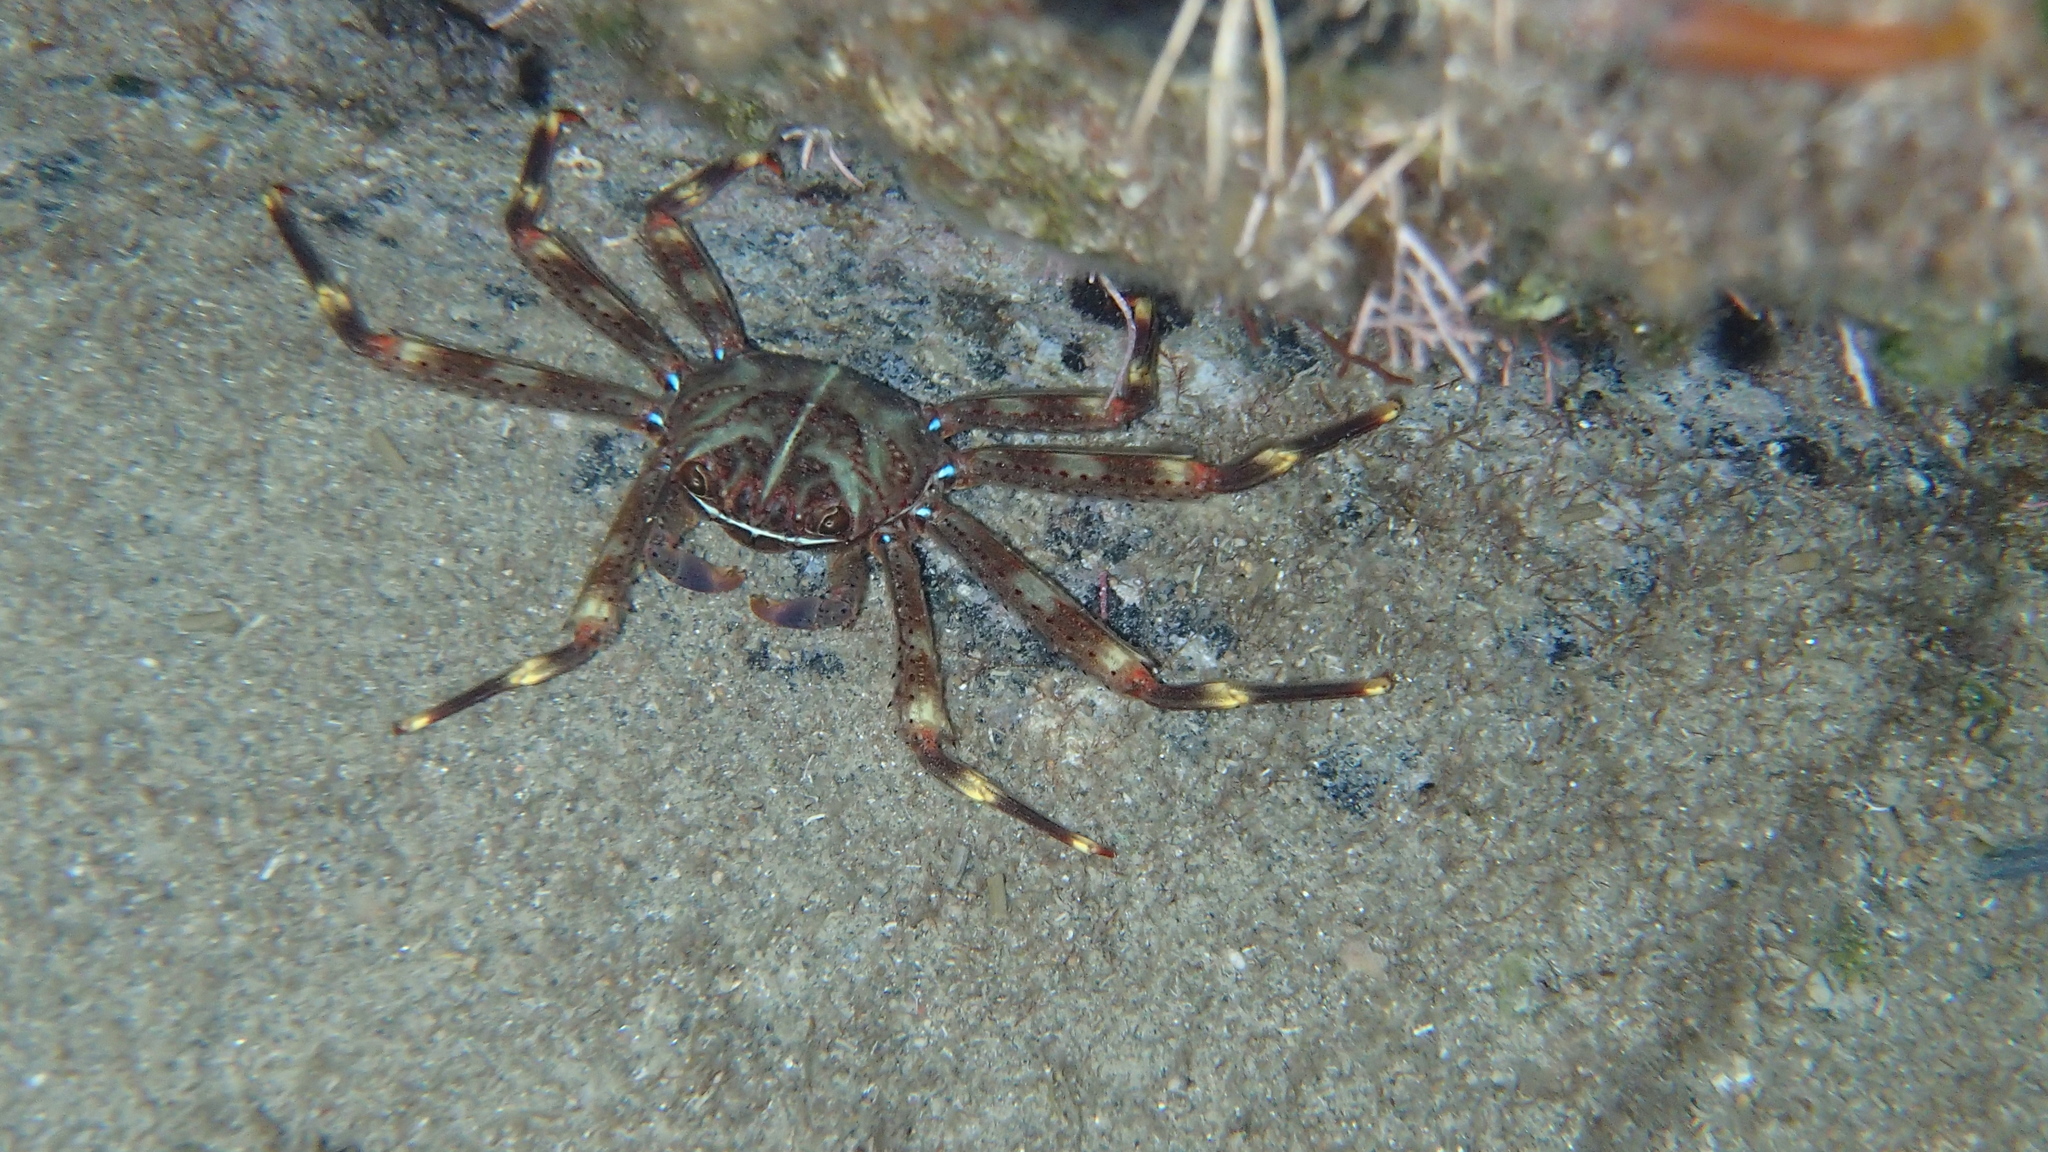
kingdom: Animalia
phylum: Arthropoda
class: Malacostraca
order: Decapoda
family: Percnidae
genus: Percnon
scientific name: Percnon gibbesi
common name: Nimble spray crab
